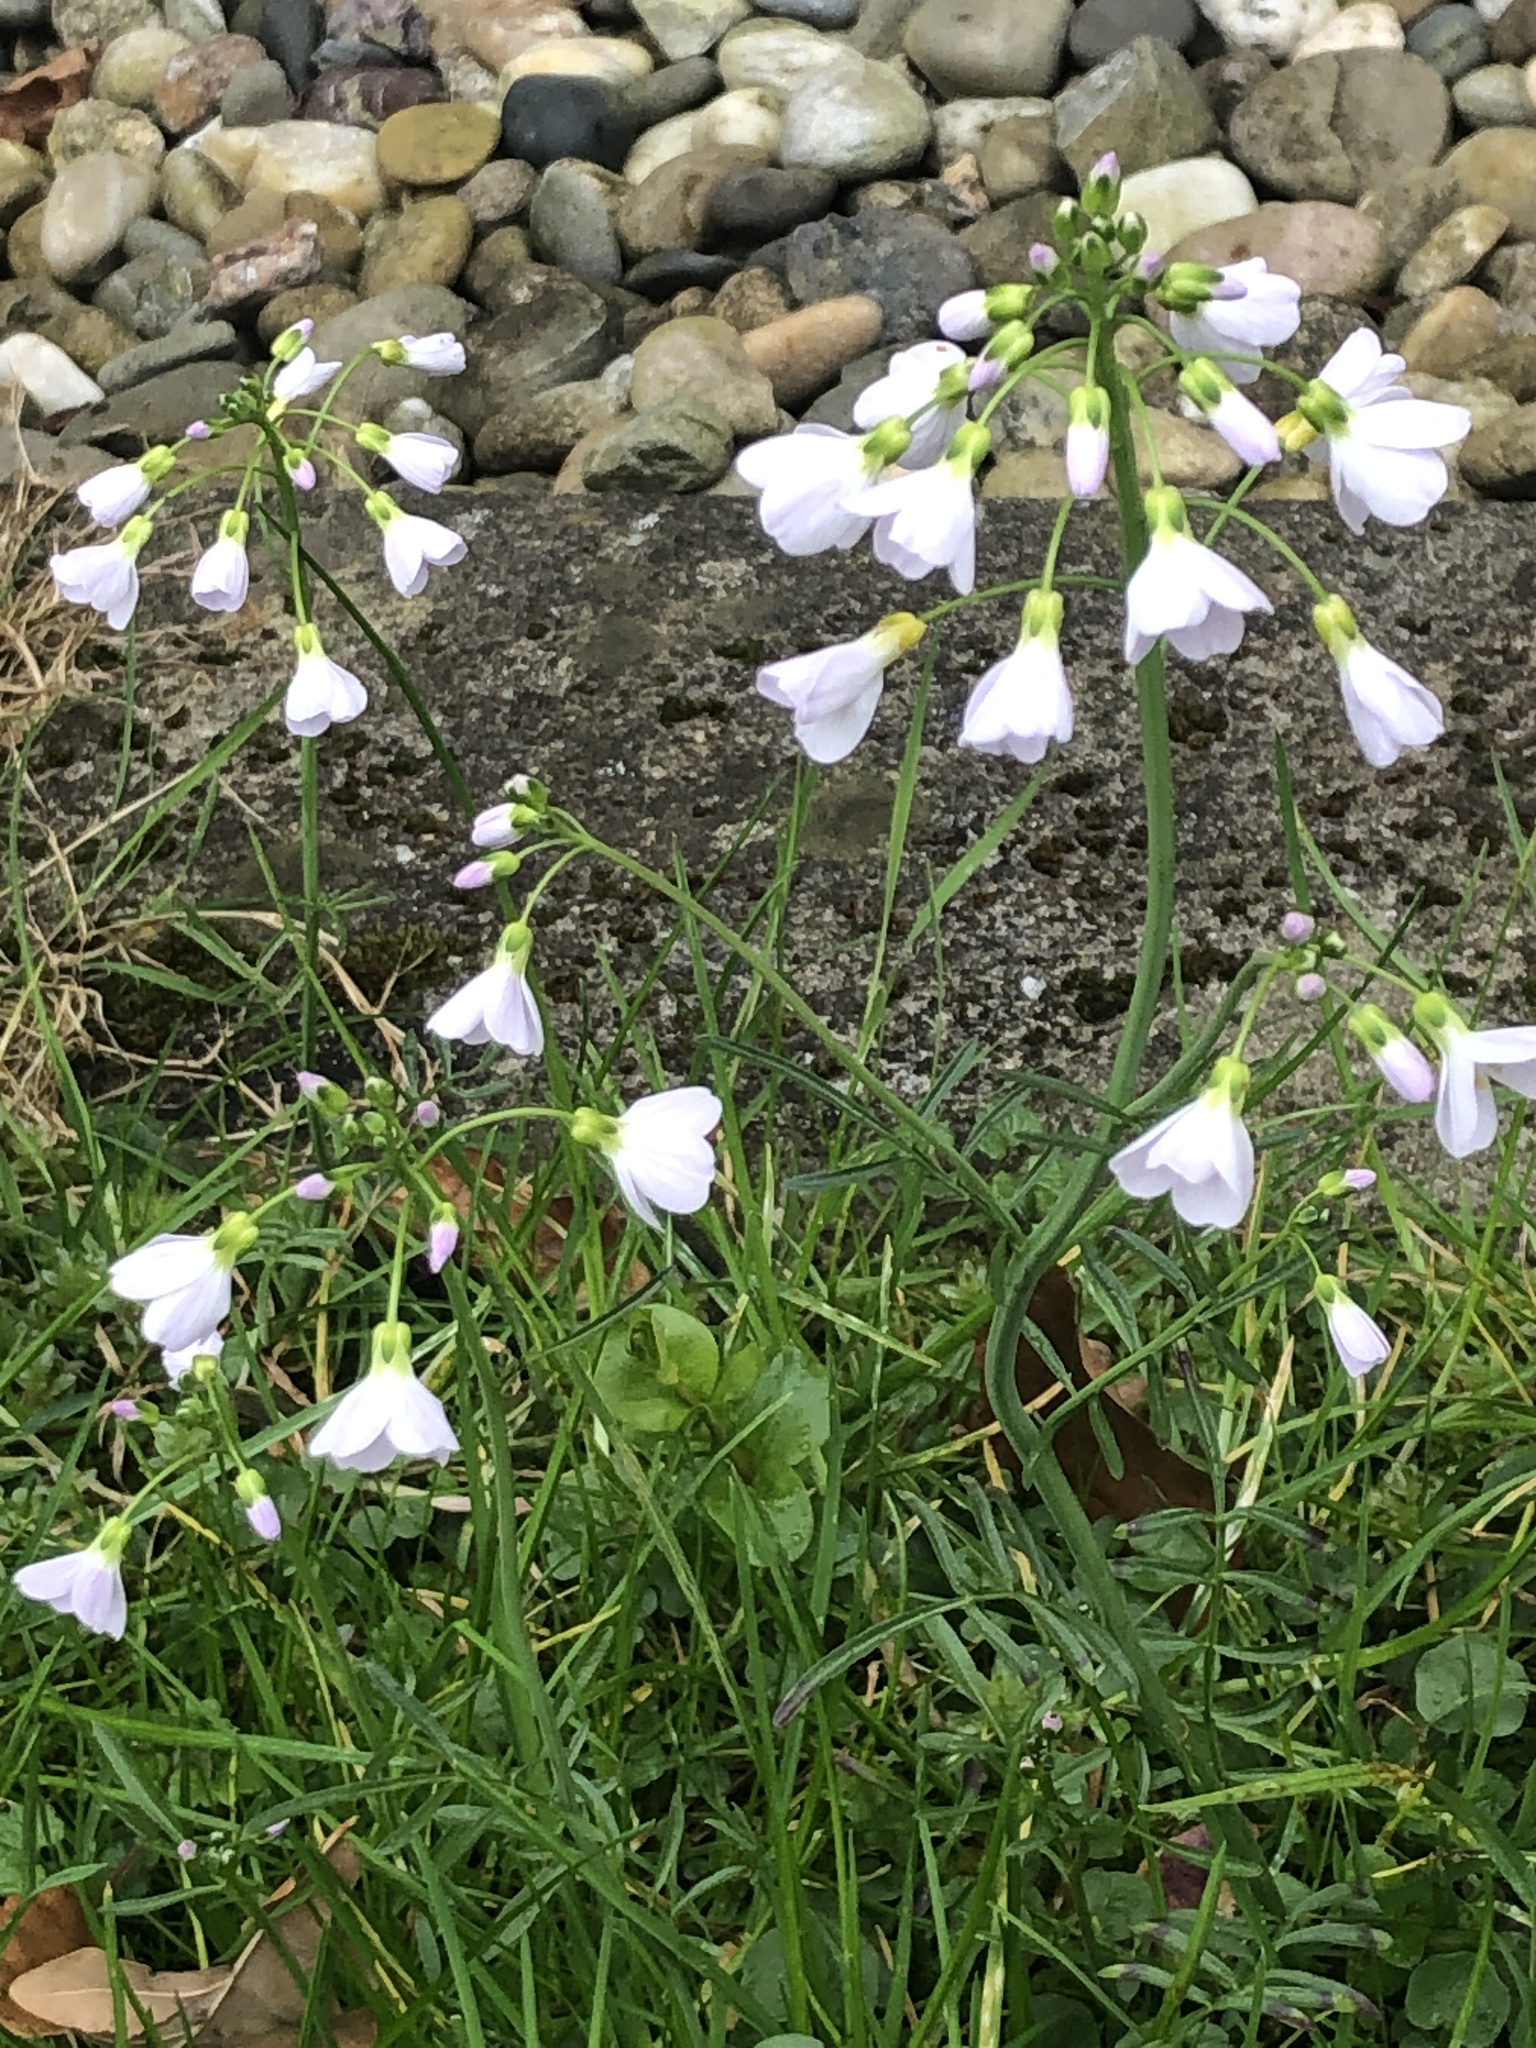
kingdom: Plantae
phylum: Tracheophyta
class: Magnoliopsida
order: Brassicales
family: Brassicaceae
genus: Cardamine
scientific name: Cardamine pratensis
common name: Cuckoo flower
